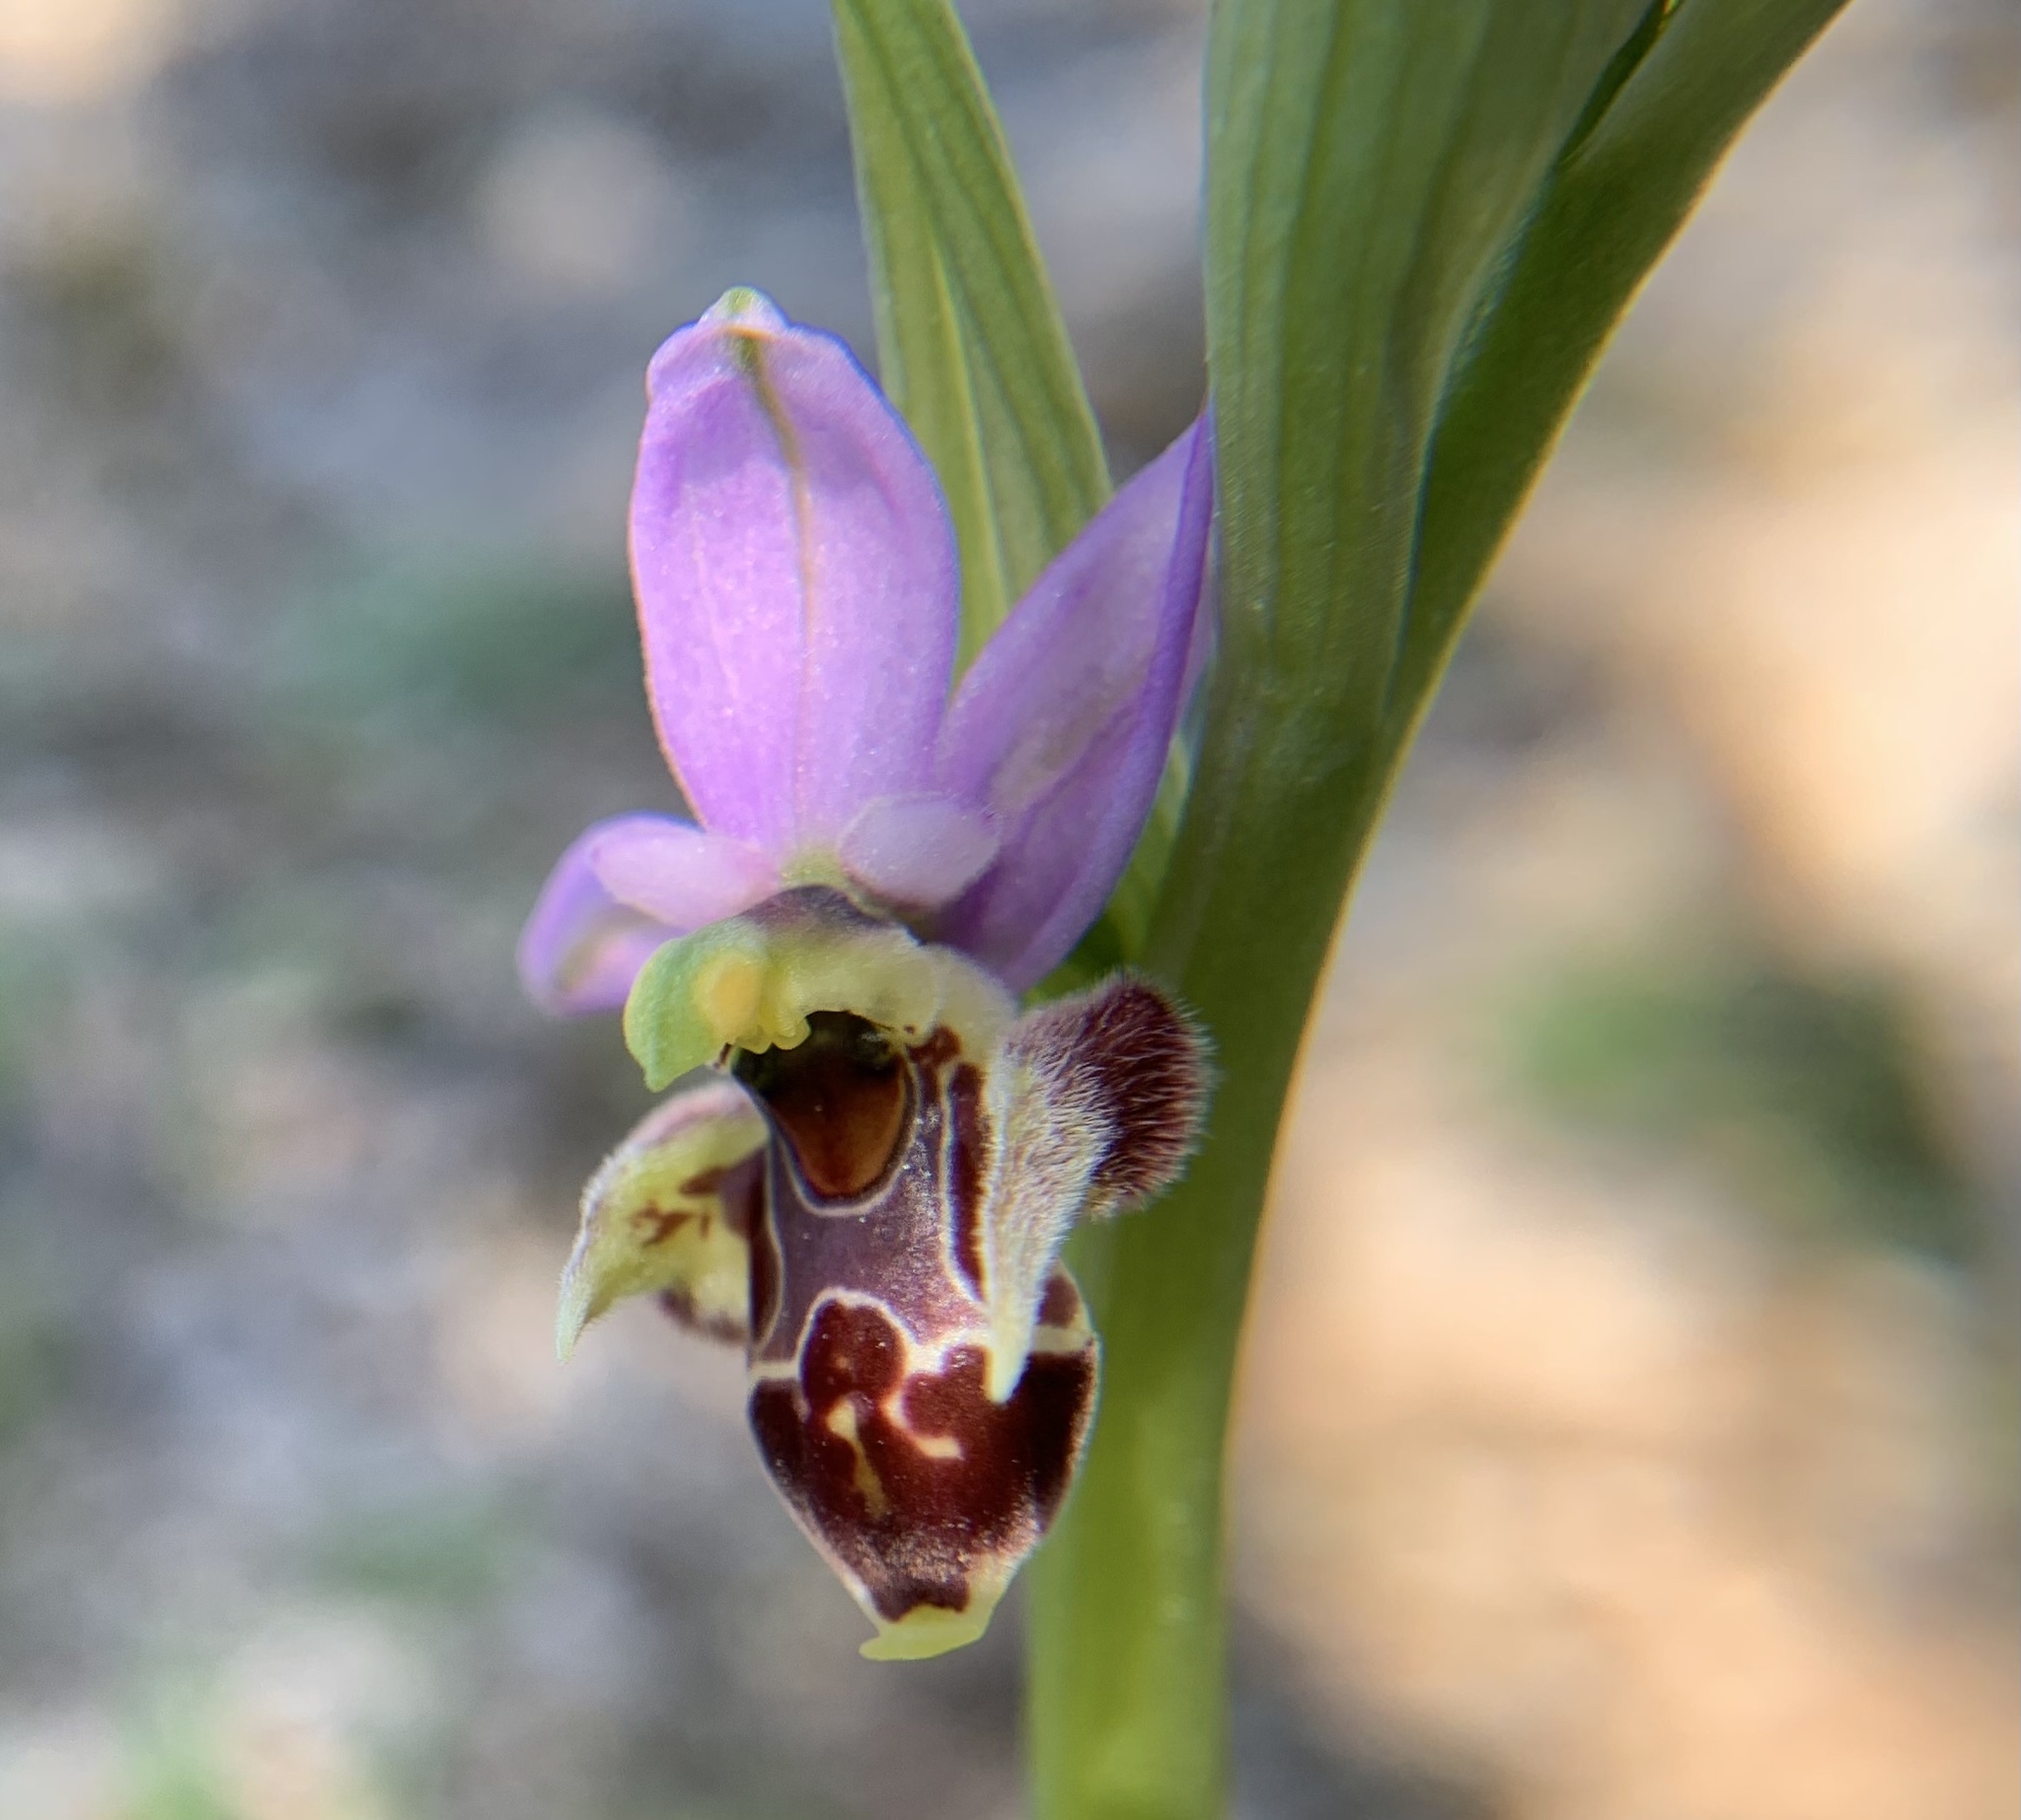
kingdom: Plantae
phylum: Tracheophyta
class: Liliopsida
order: Asparagales
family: Orchidaceae
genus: Ophrys
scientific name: Ophrys
